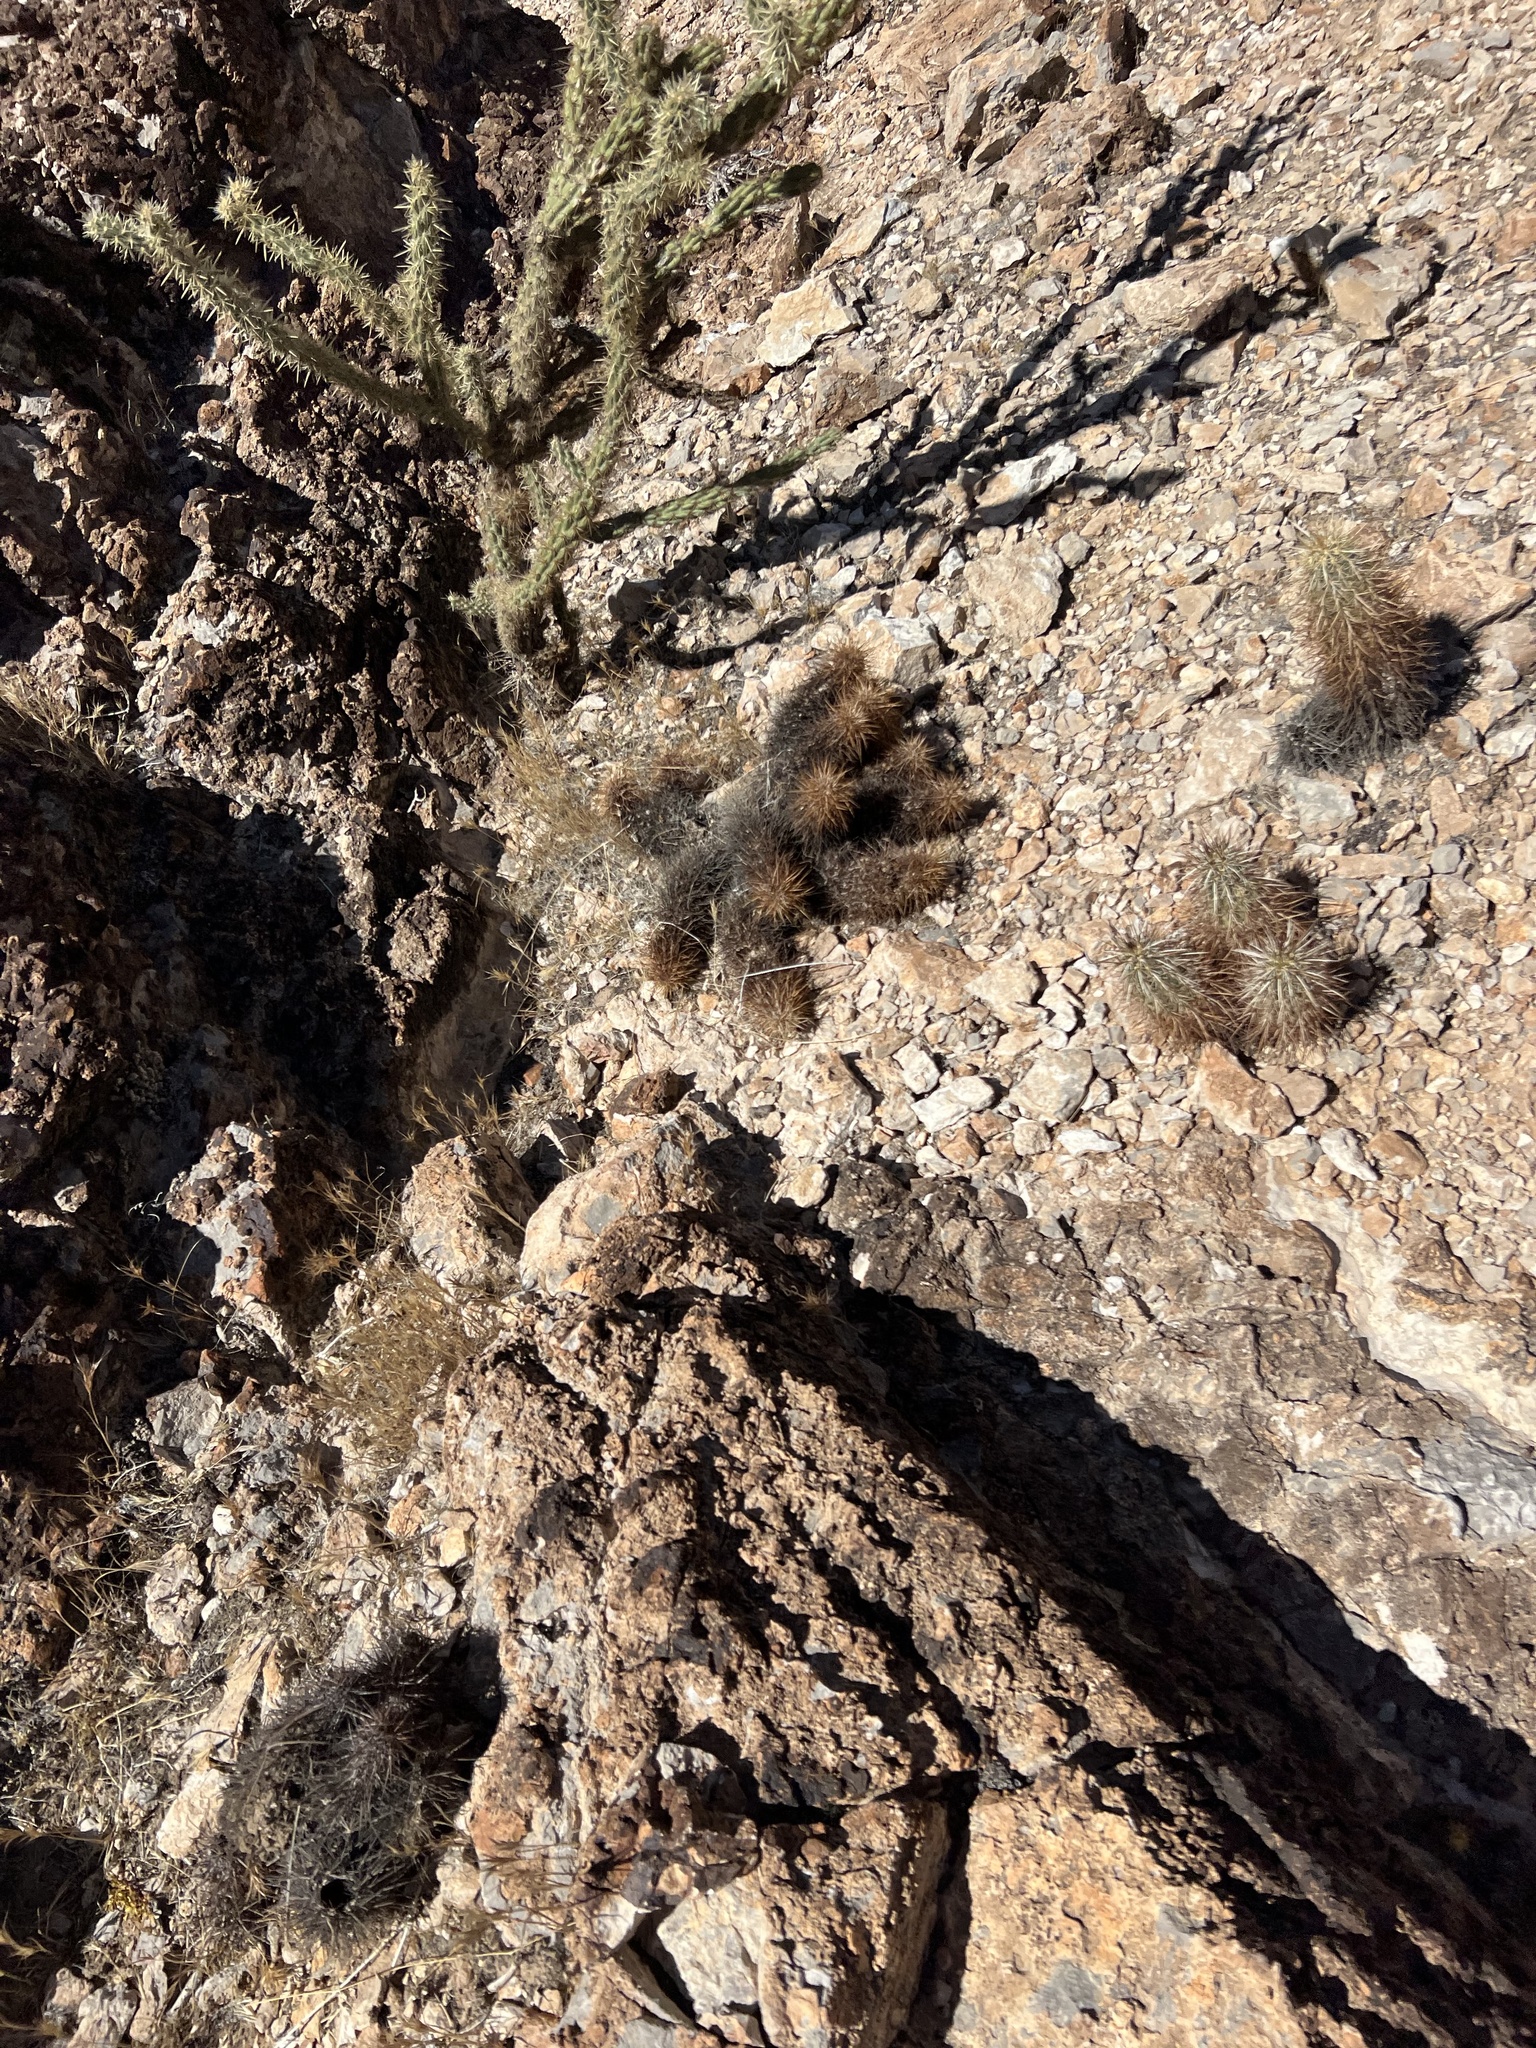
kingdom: Plantae
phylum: Tracheophyta
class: Magnoliopsida
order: Caryophyllales
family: Cactaceae
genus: Echinocereus
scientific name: Echinocereus engelmannii
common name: Engelmann's hedgehog cactus
